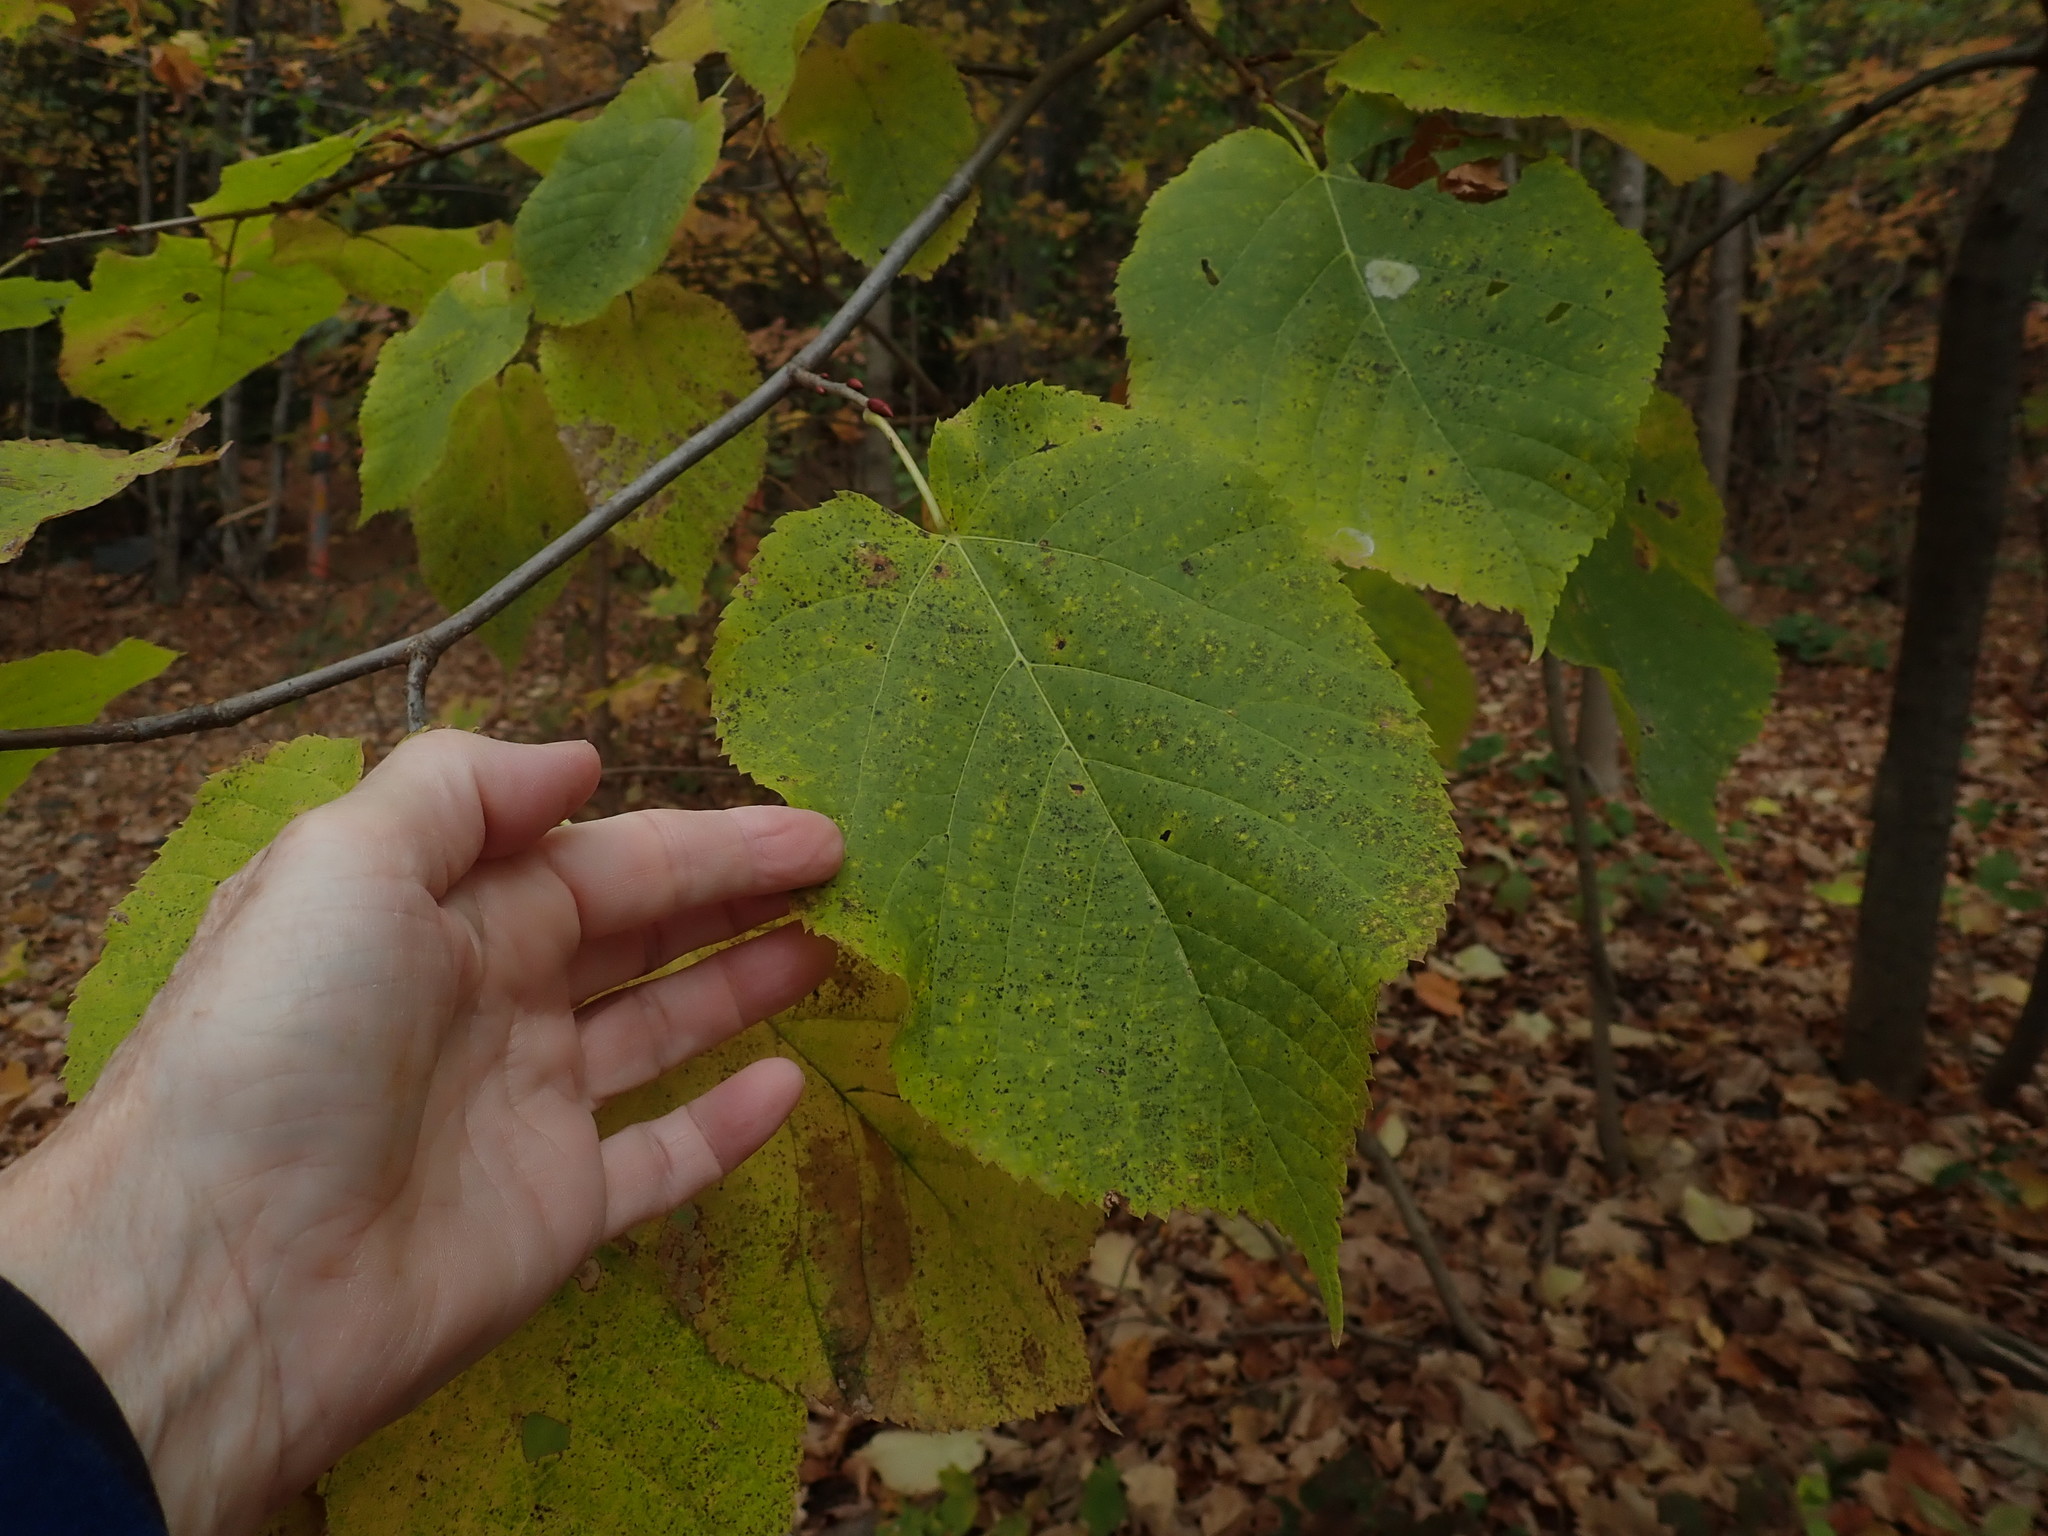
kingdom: Plantae
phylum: Tracheophyta
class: Magnoliopsida
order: Malvales
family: Malvaceae
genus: Tilia
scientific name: Tilia americana
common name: Basswood
